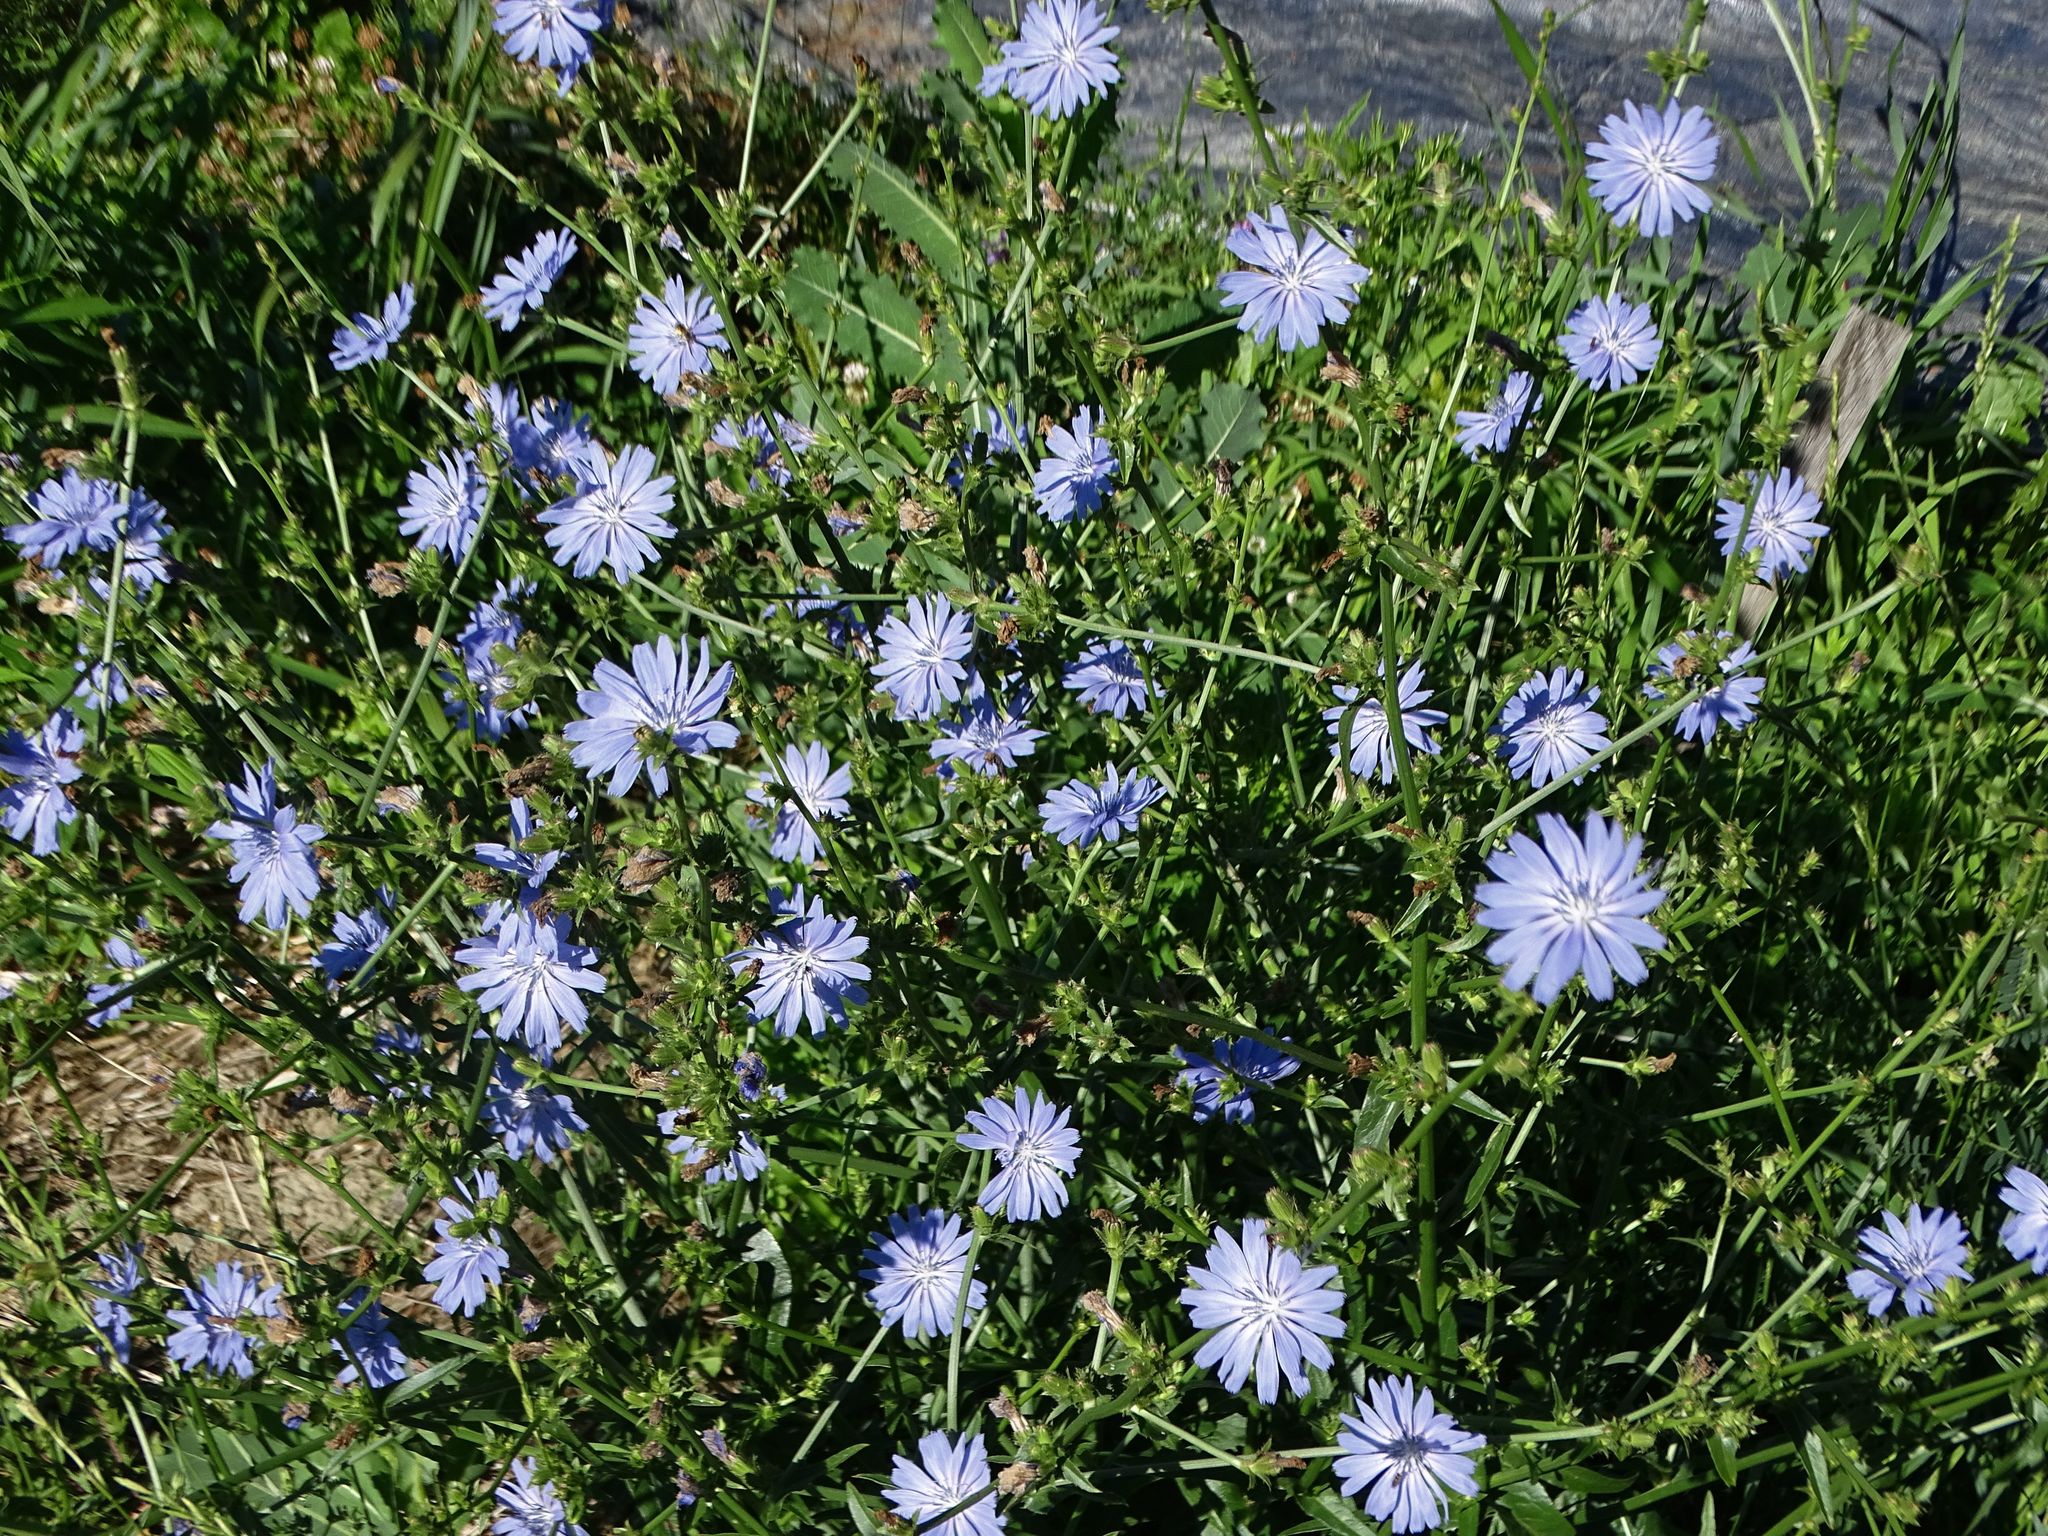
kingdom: Plantae
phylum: Tracheophyta
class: Magnoliopsida
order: Asterales
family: Asteraceae
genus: Cichorium
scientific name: Cichorium intybus
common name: Chicory
